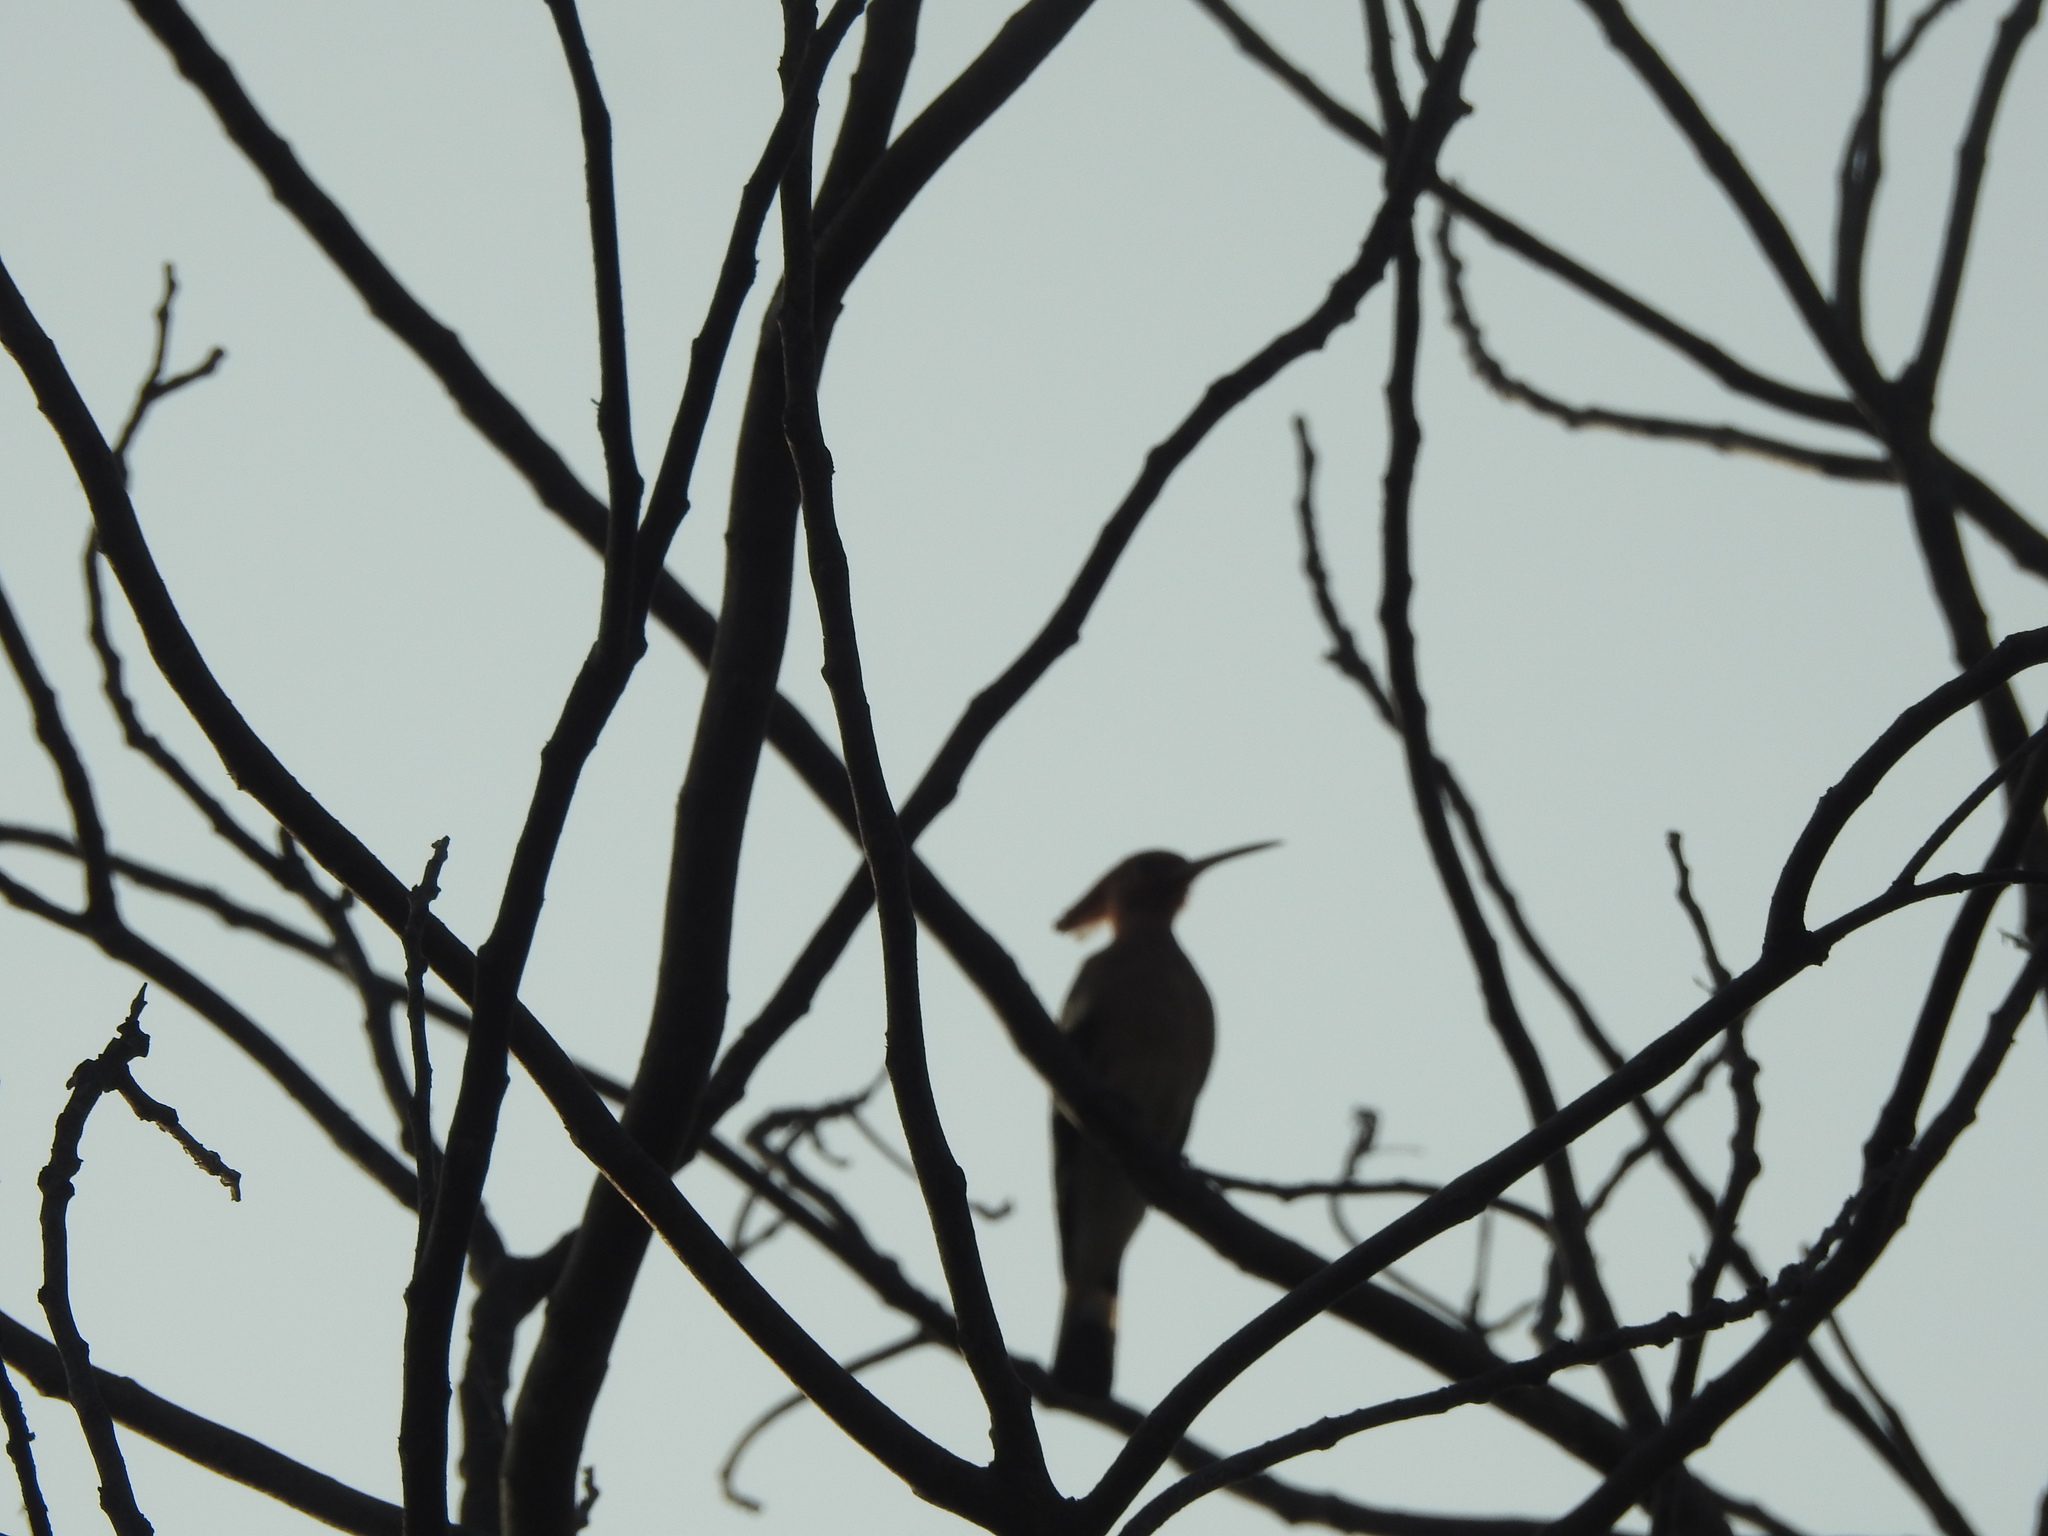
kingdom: Animalia
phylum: Chordata
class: Aves
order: Bucerotiformes
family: Upupidae
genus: Upupa
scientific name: Upupa epops
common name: Eurasian hoopoe
